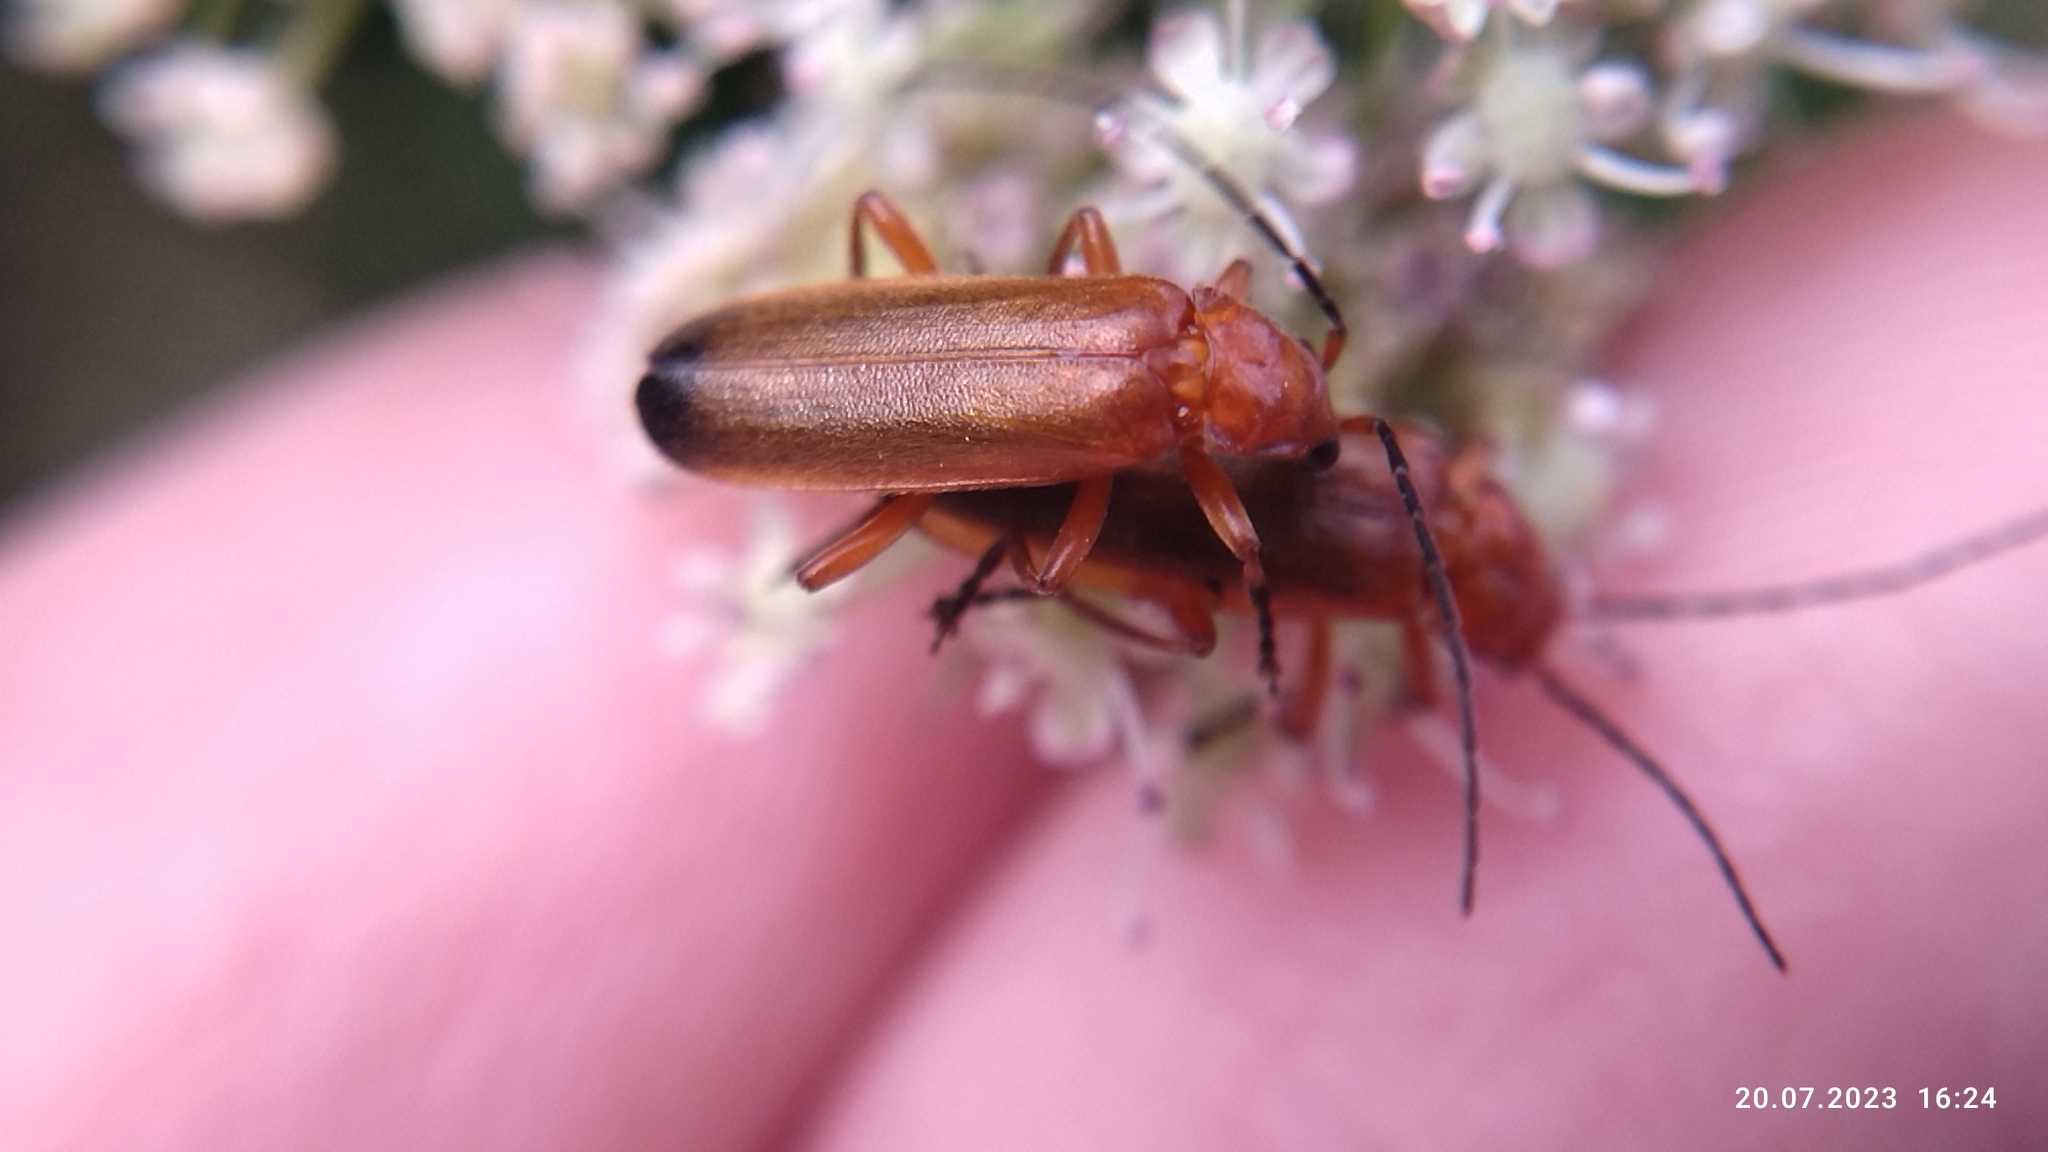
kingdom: Animalia
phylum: Arthropoda
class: Insecta
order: Coleoptera
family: Cantharidae
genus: Rhagonycha
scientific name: Rhagonycha fulva
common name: Common red soldier beetle
